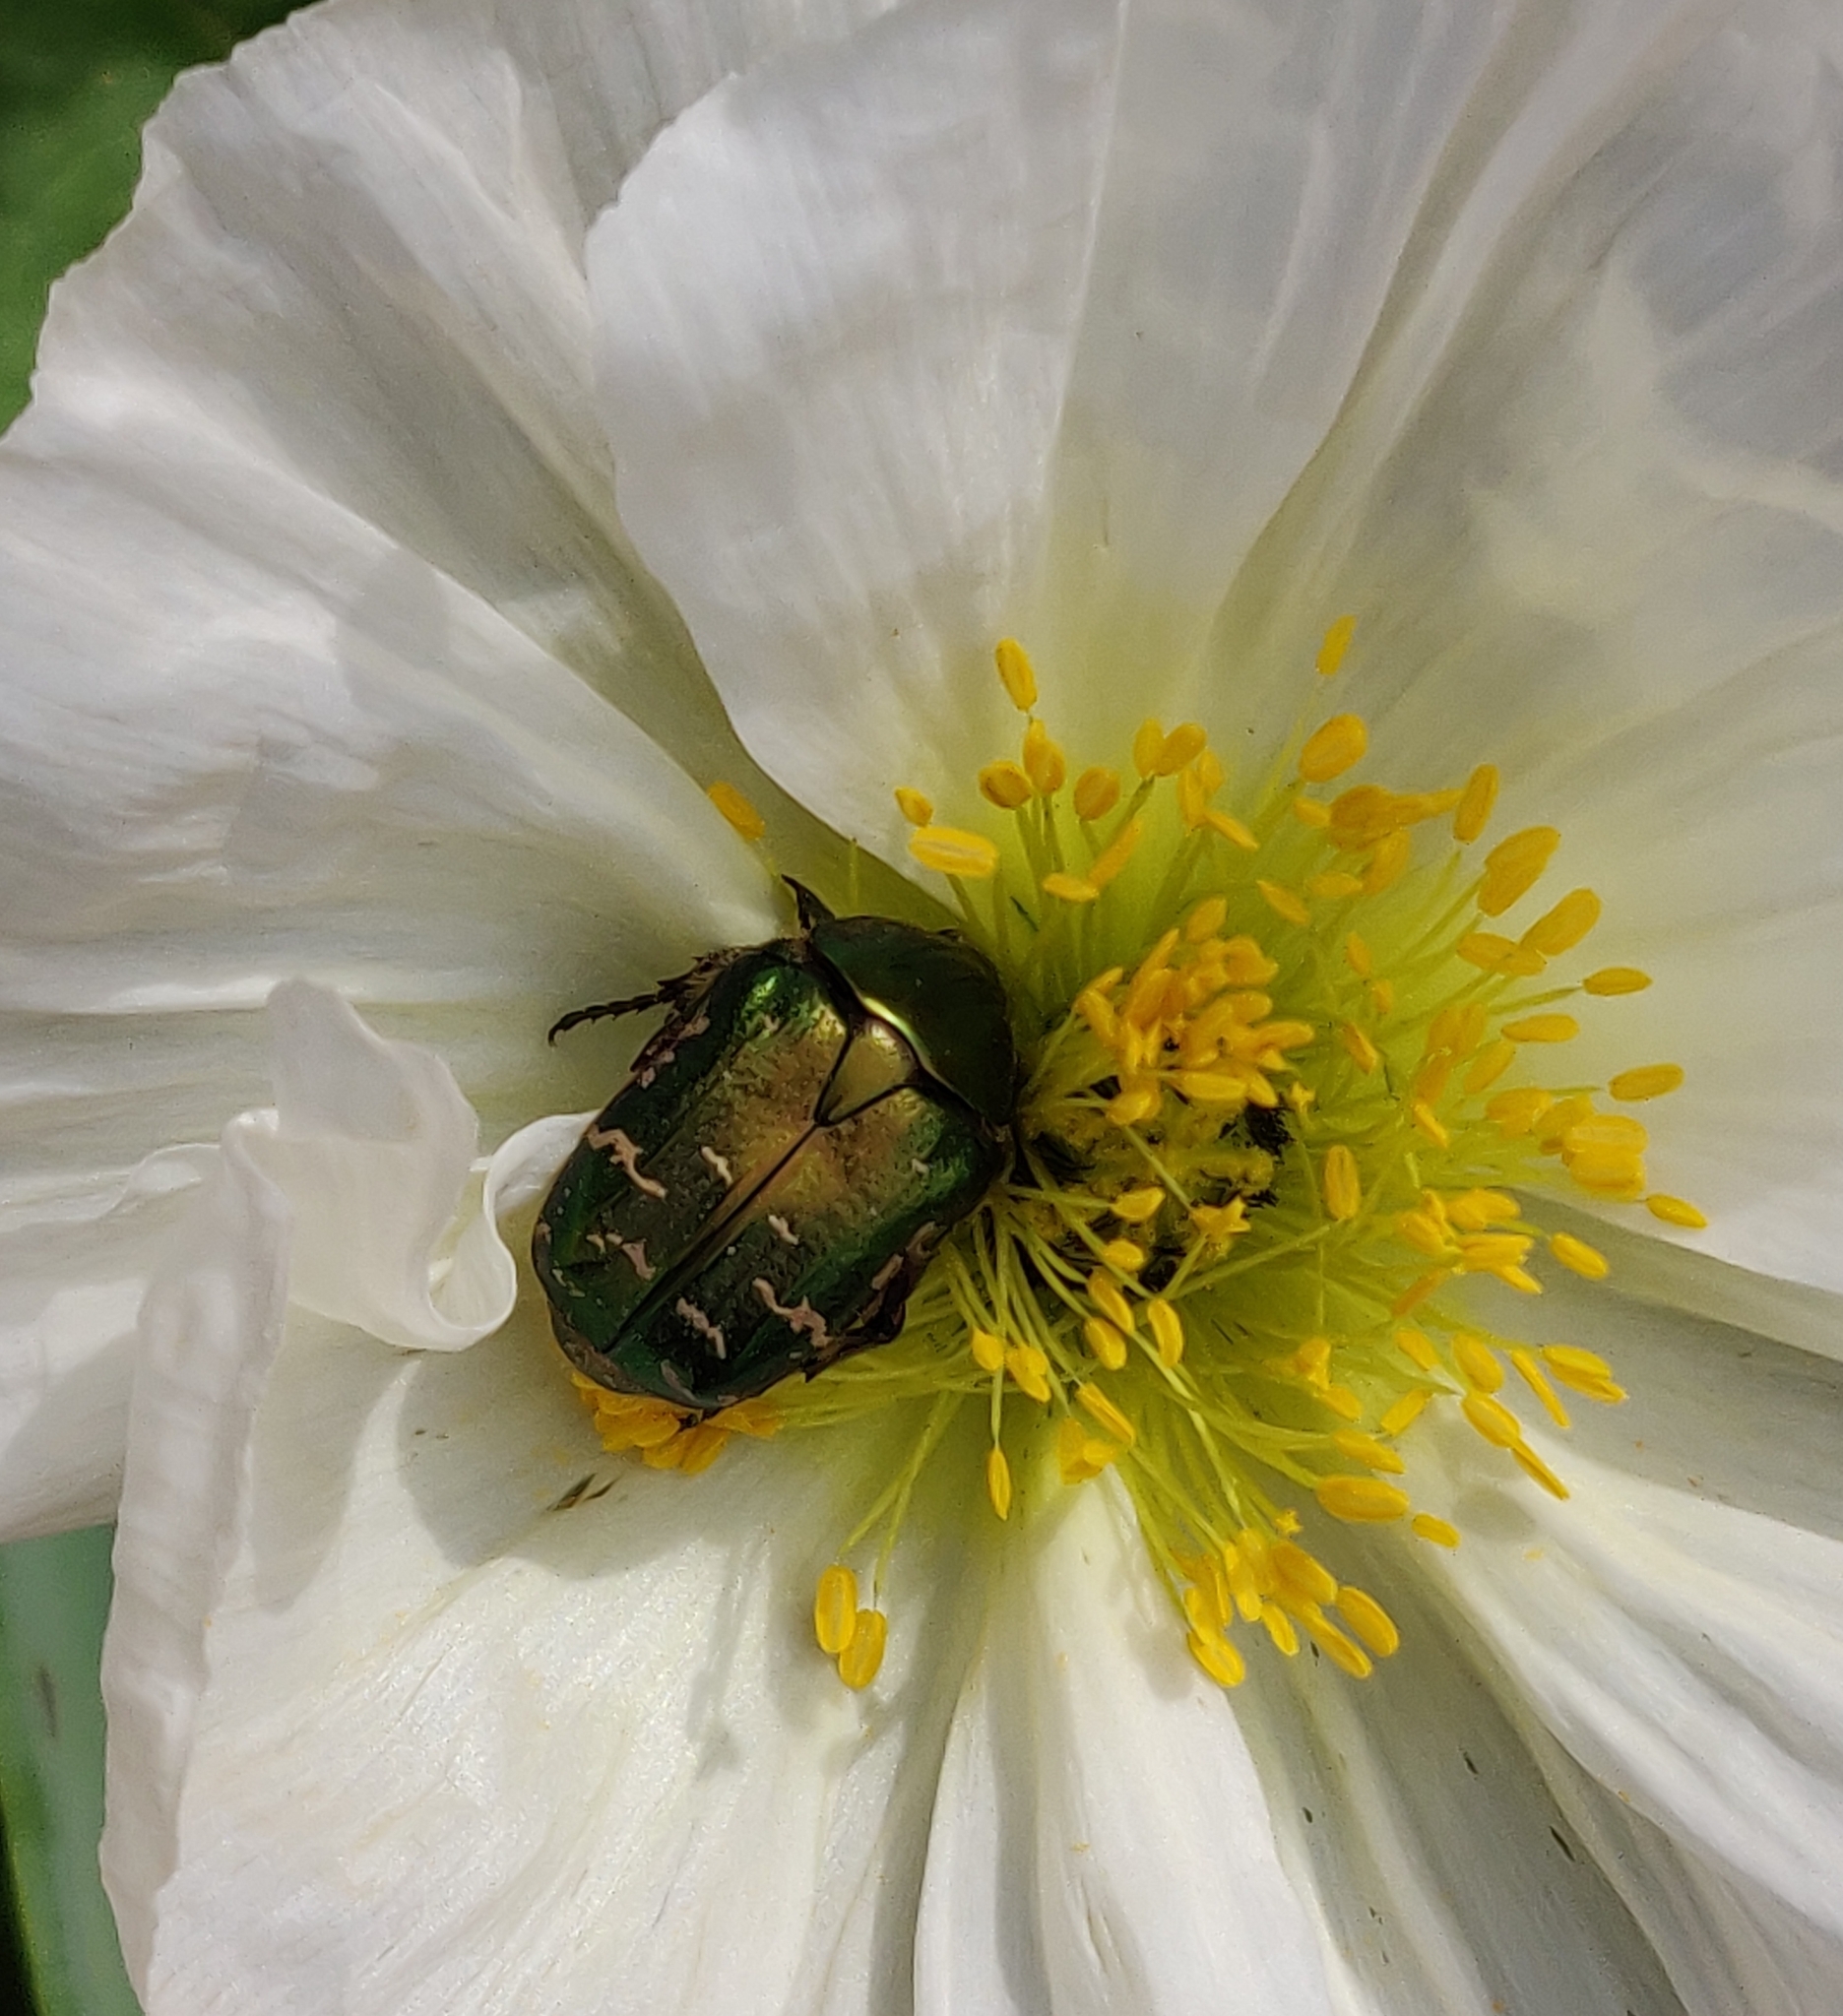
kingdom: Animalia
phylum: Arthropoda
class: Insecta
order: Coleoptera
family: Scarabaeidae
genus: Cetonia
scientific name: Cetonia aurata
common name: Rose chafer
